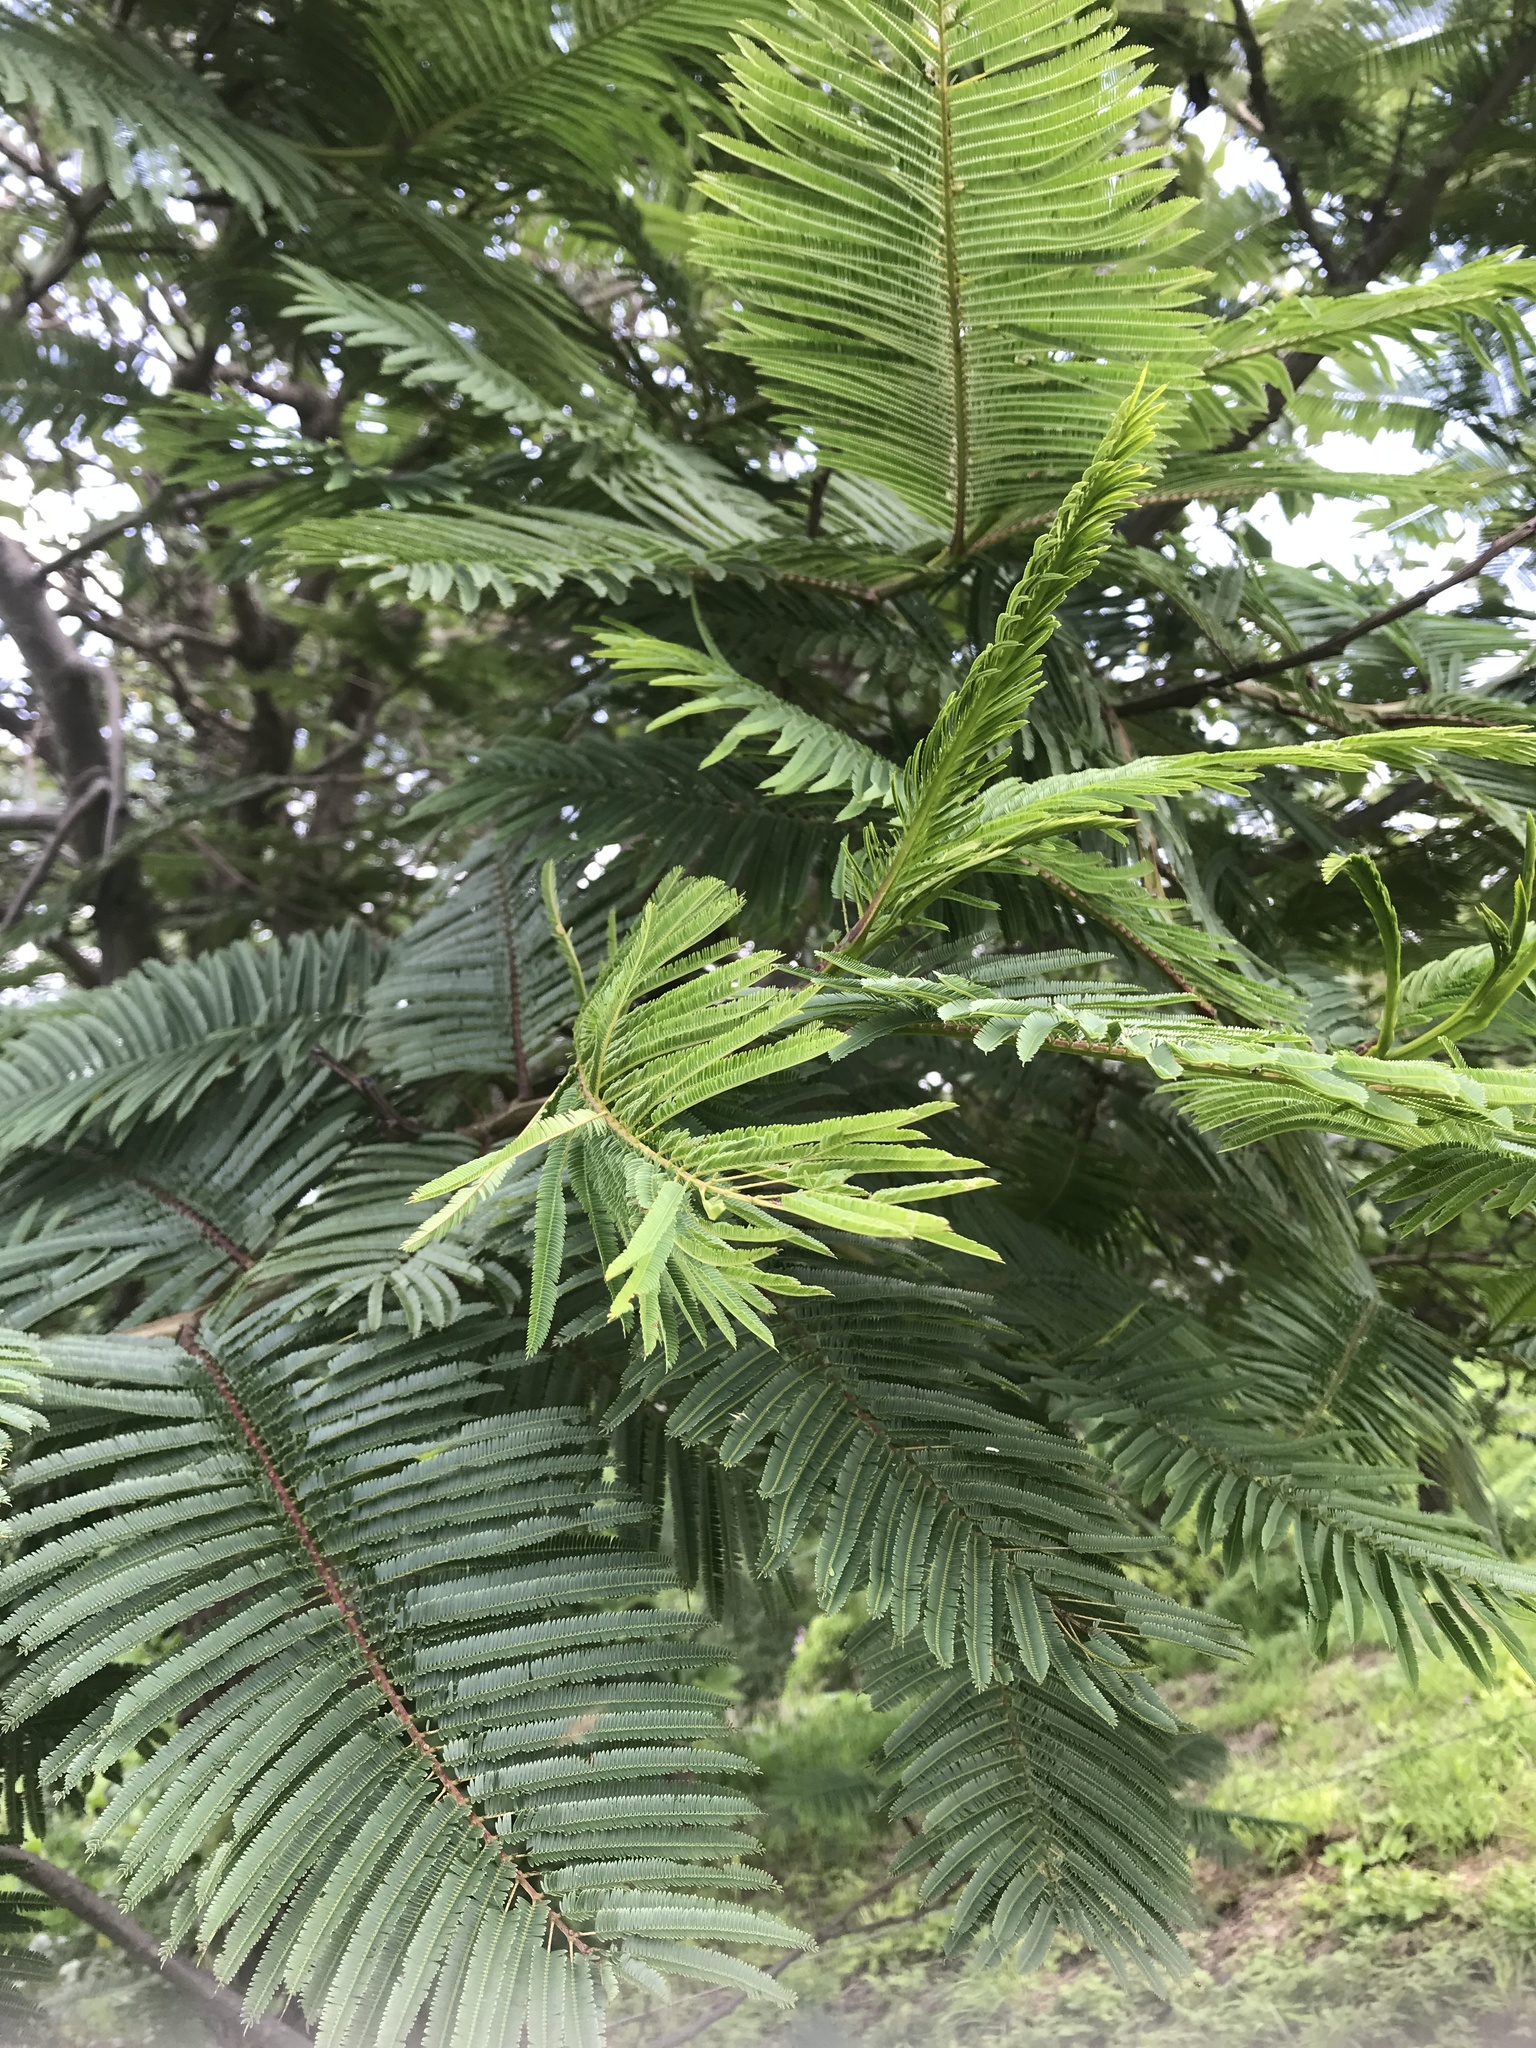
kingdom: Plantae
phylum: Tracheophyta
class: Magnoliopsida
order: Fabales
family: Fabaceae
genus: Vachellia
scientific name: Vachellia pennatula
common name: Fern-leaf acacia
